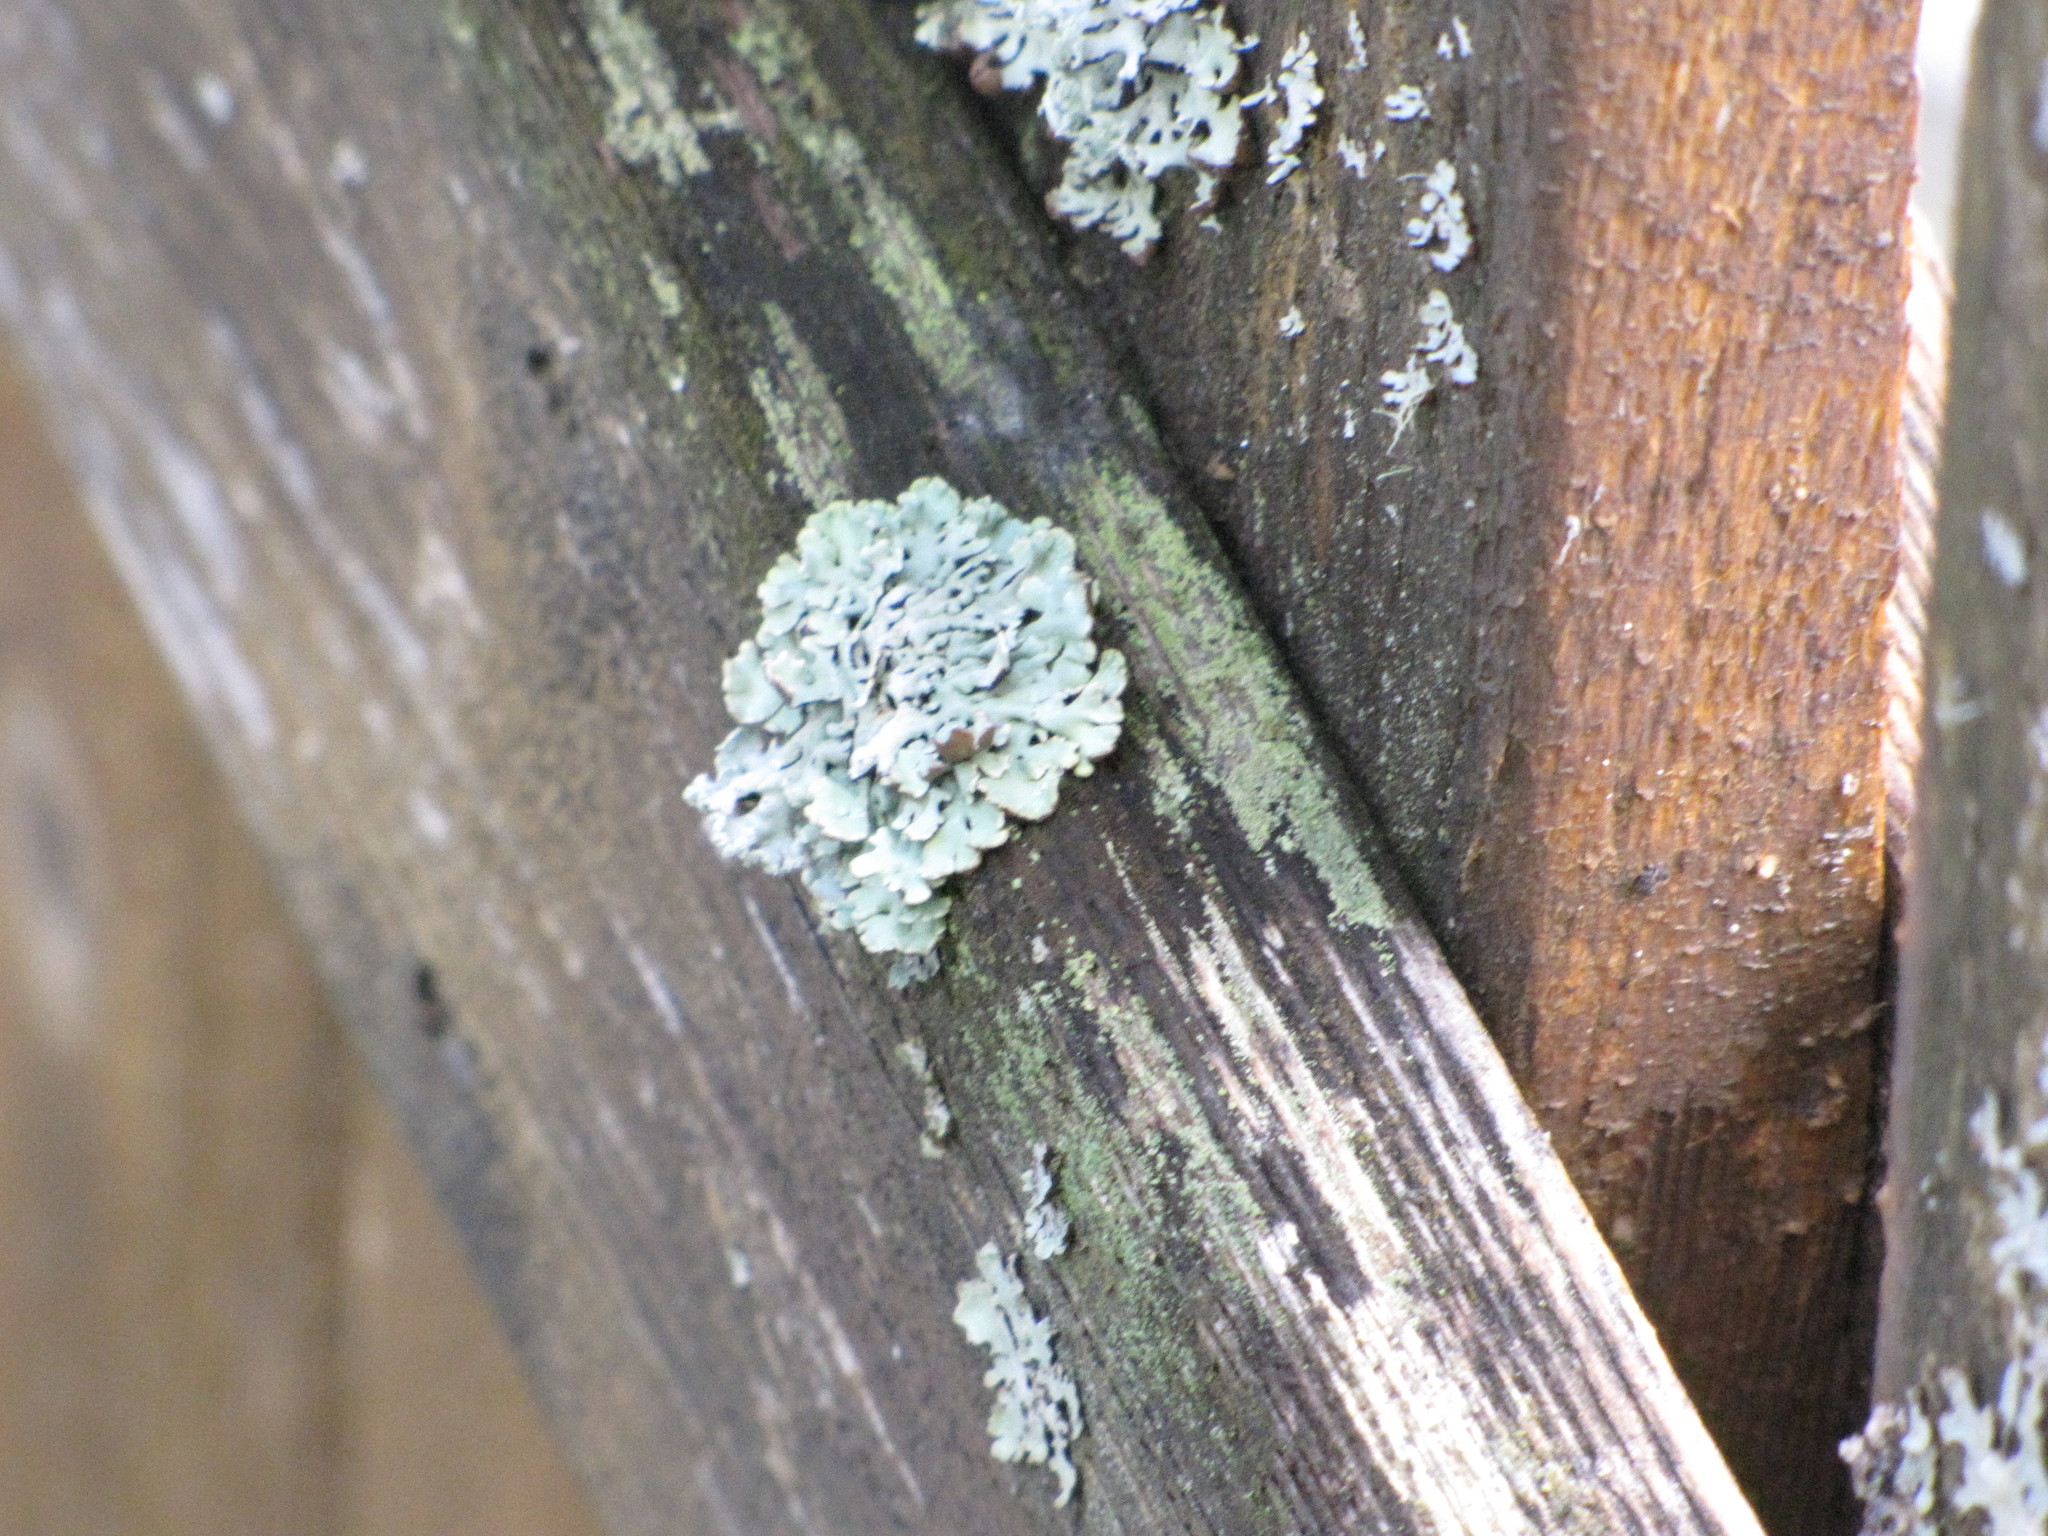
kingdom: Fungi
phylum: Ascomycota
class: Lecanoromycetes
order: Lecanorales
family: Parmeliaceae
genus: Flavoparmelia
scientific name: Flavoparmelia caperata
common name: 40-mile per hour lichen
